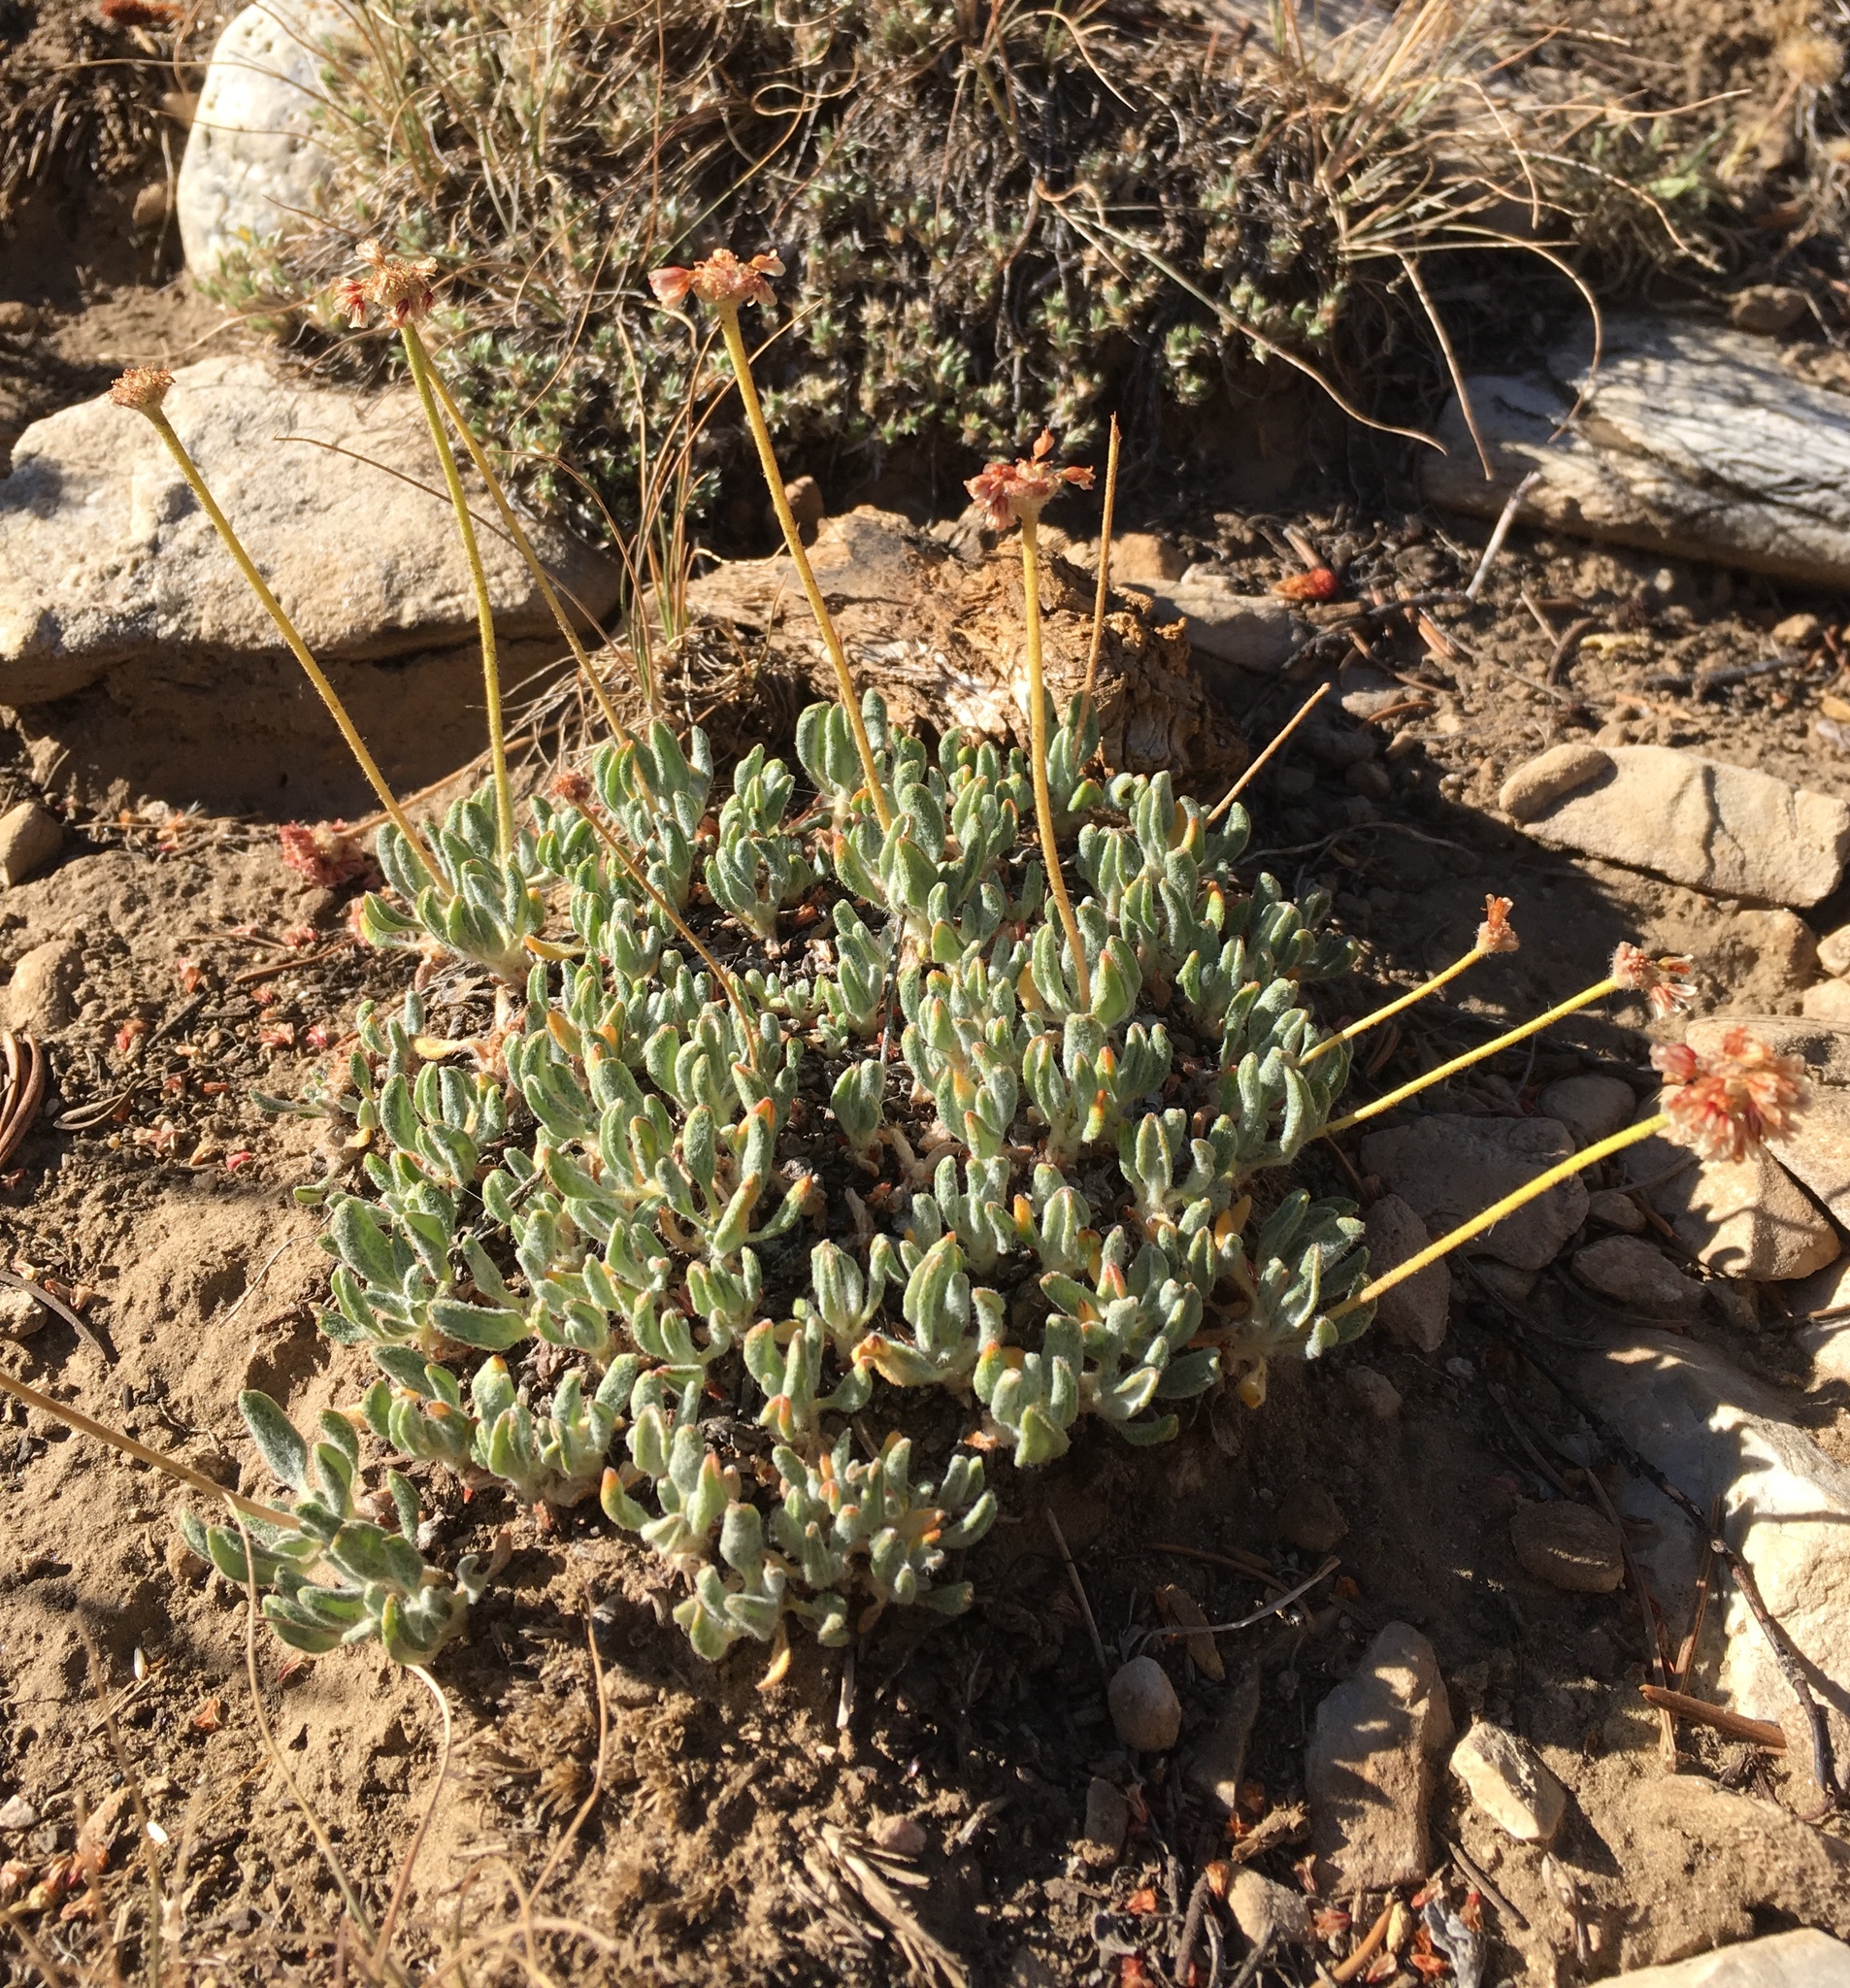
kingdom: Plantae
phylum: Tracheophyta
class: Magnoliopsida
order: Caryophyllales
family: Polygonaceae
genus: Eriogonum
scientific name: Eriogonum gracilipes
